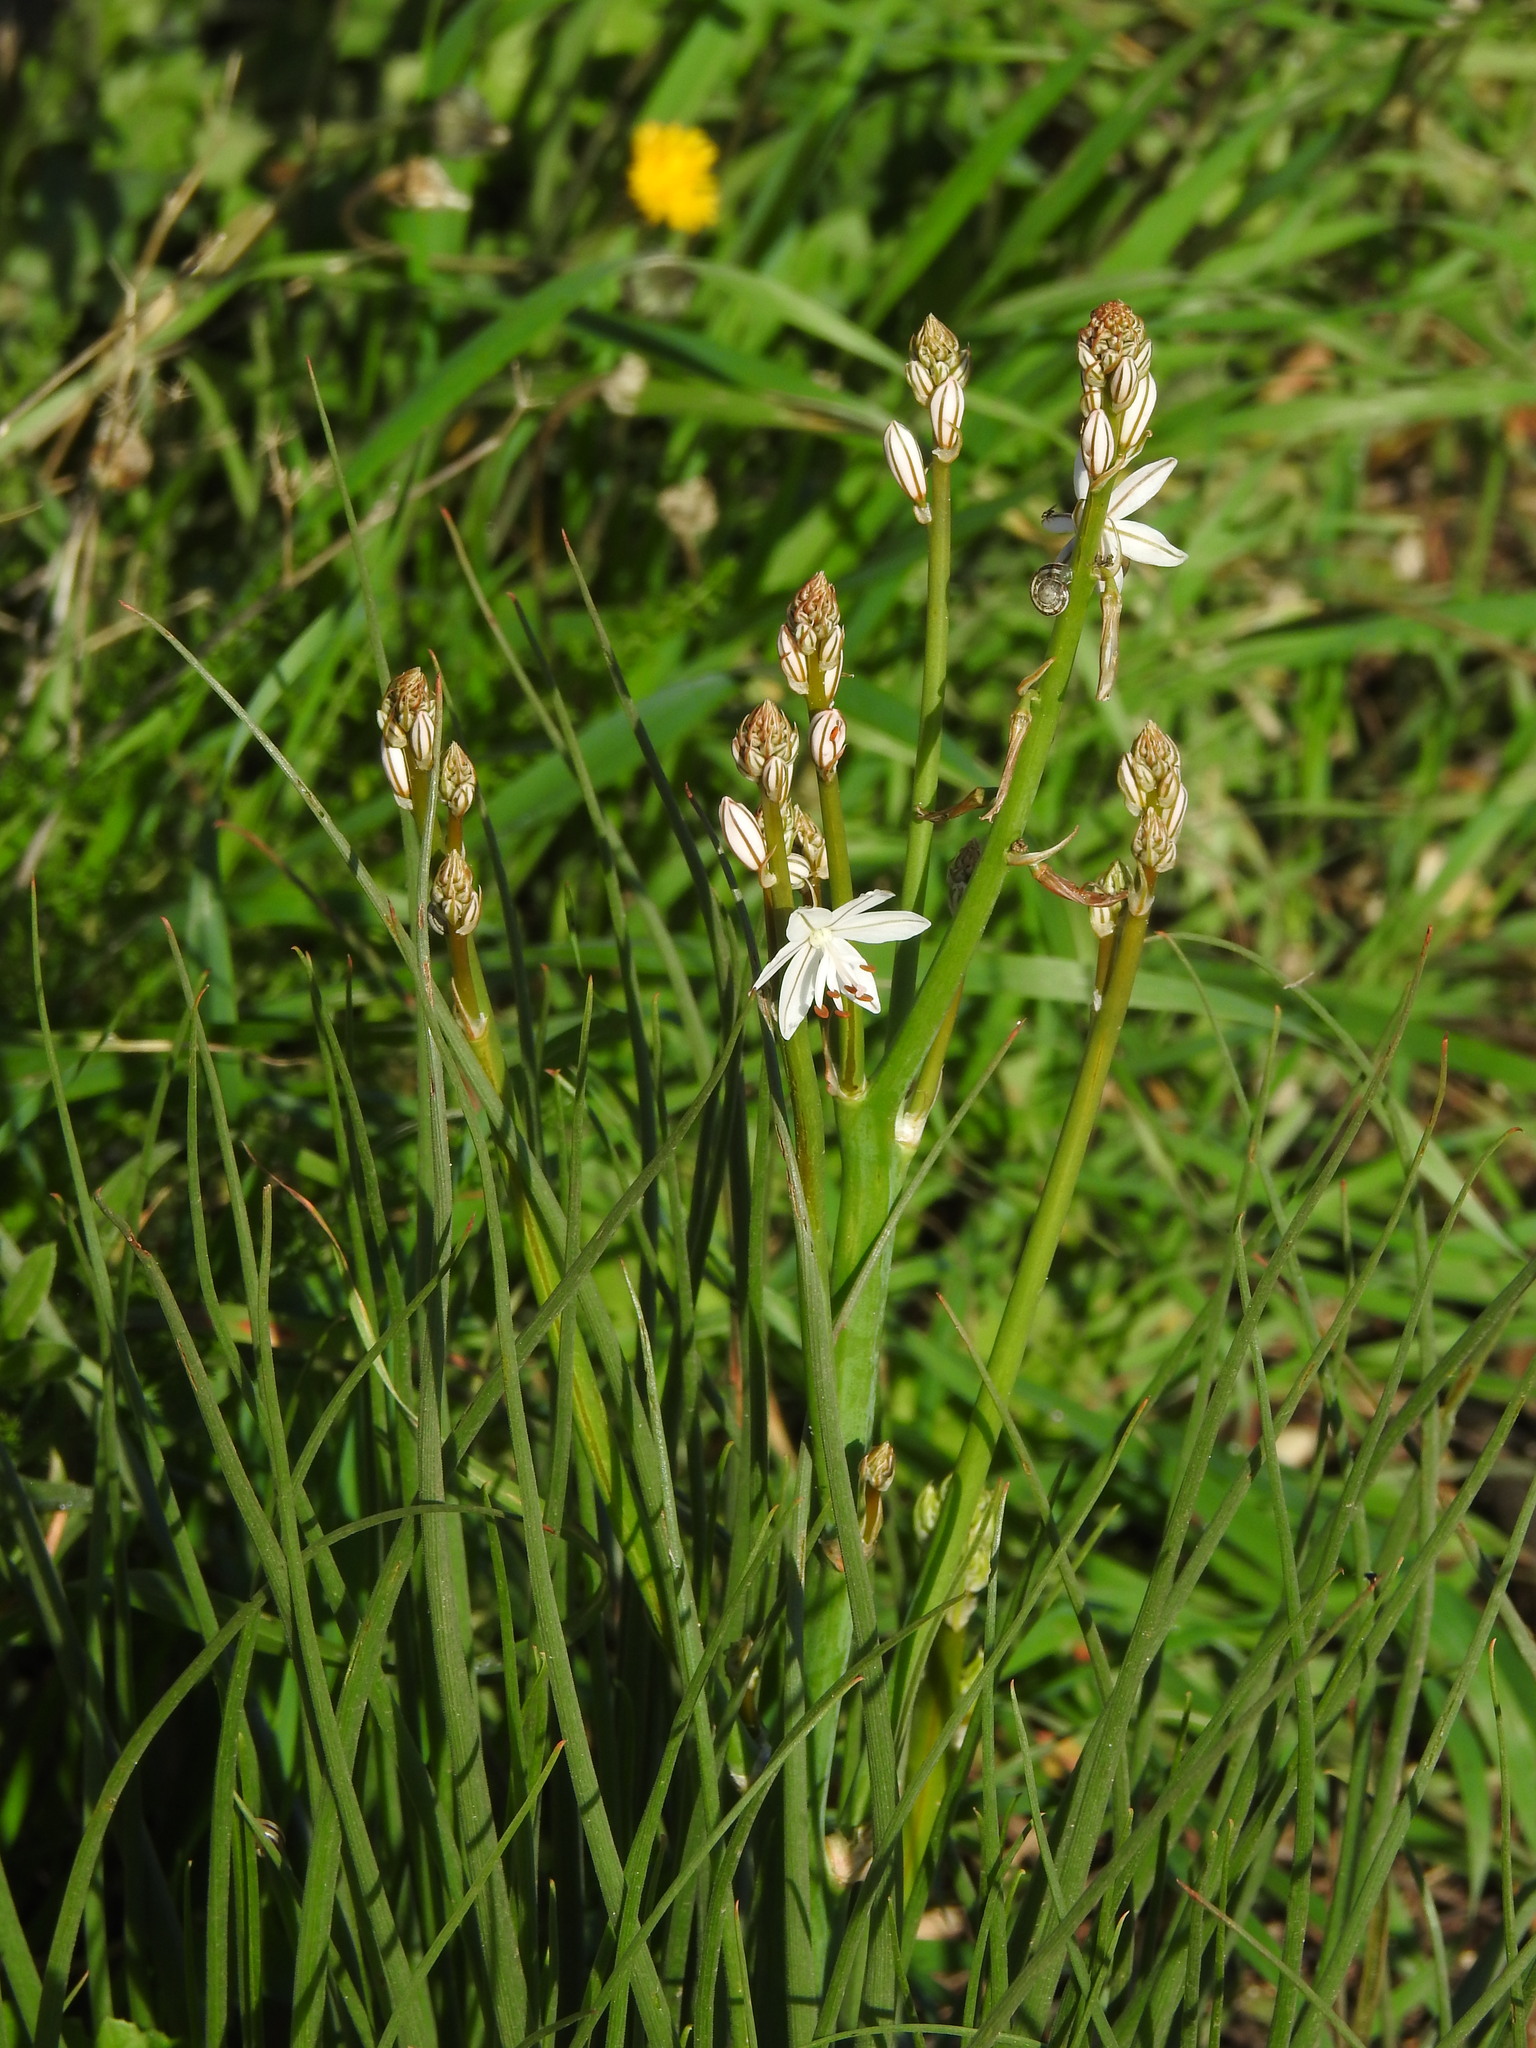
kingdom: Plantae
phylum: Tracheophyta
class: Liliopsida
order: Asparagales
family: Asphodelaceae
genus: Asphodelus
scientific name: Asphodelus fistulosus
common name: Onionweed
